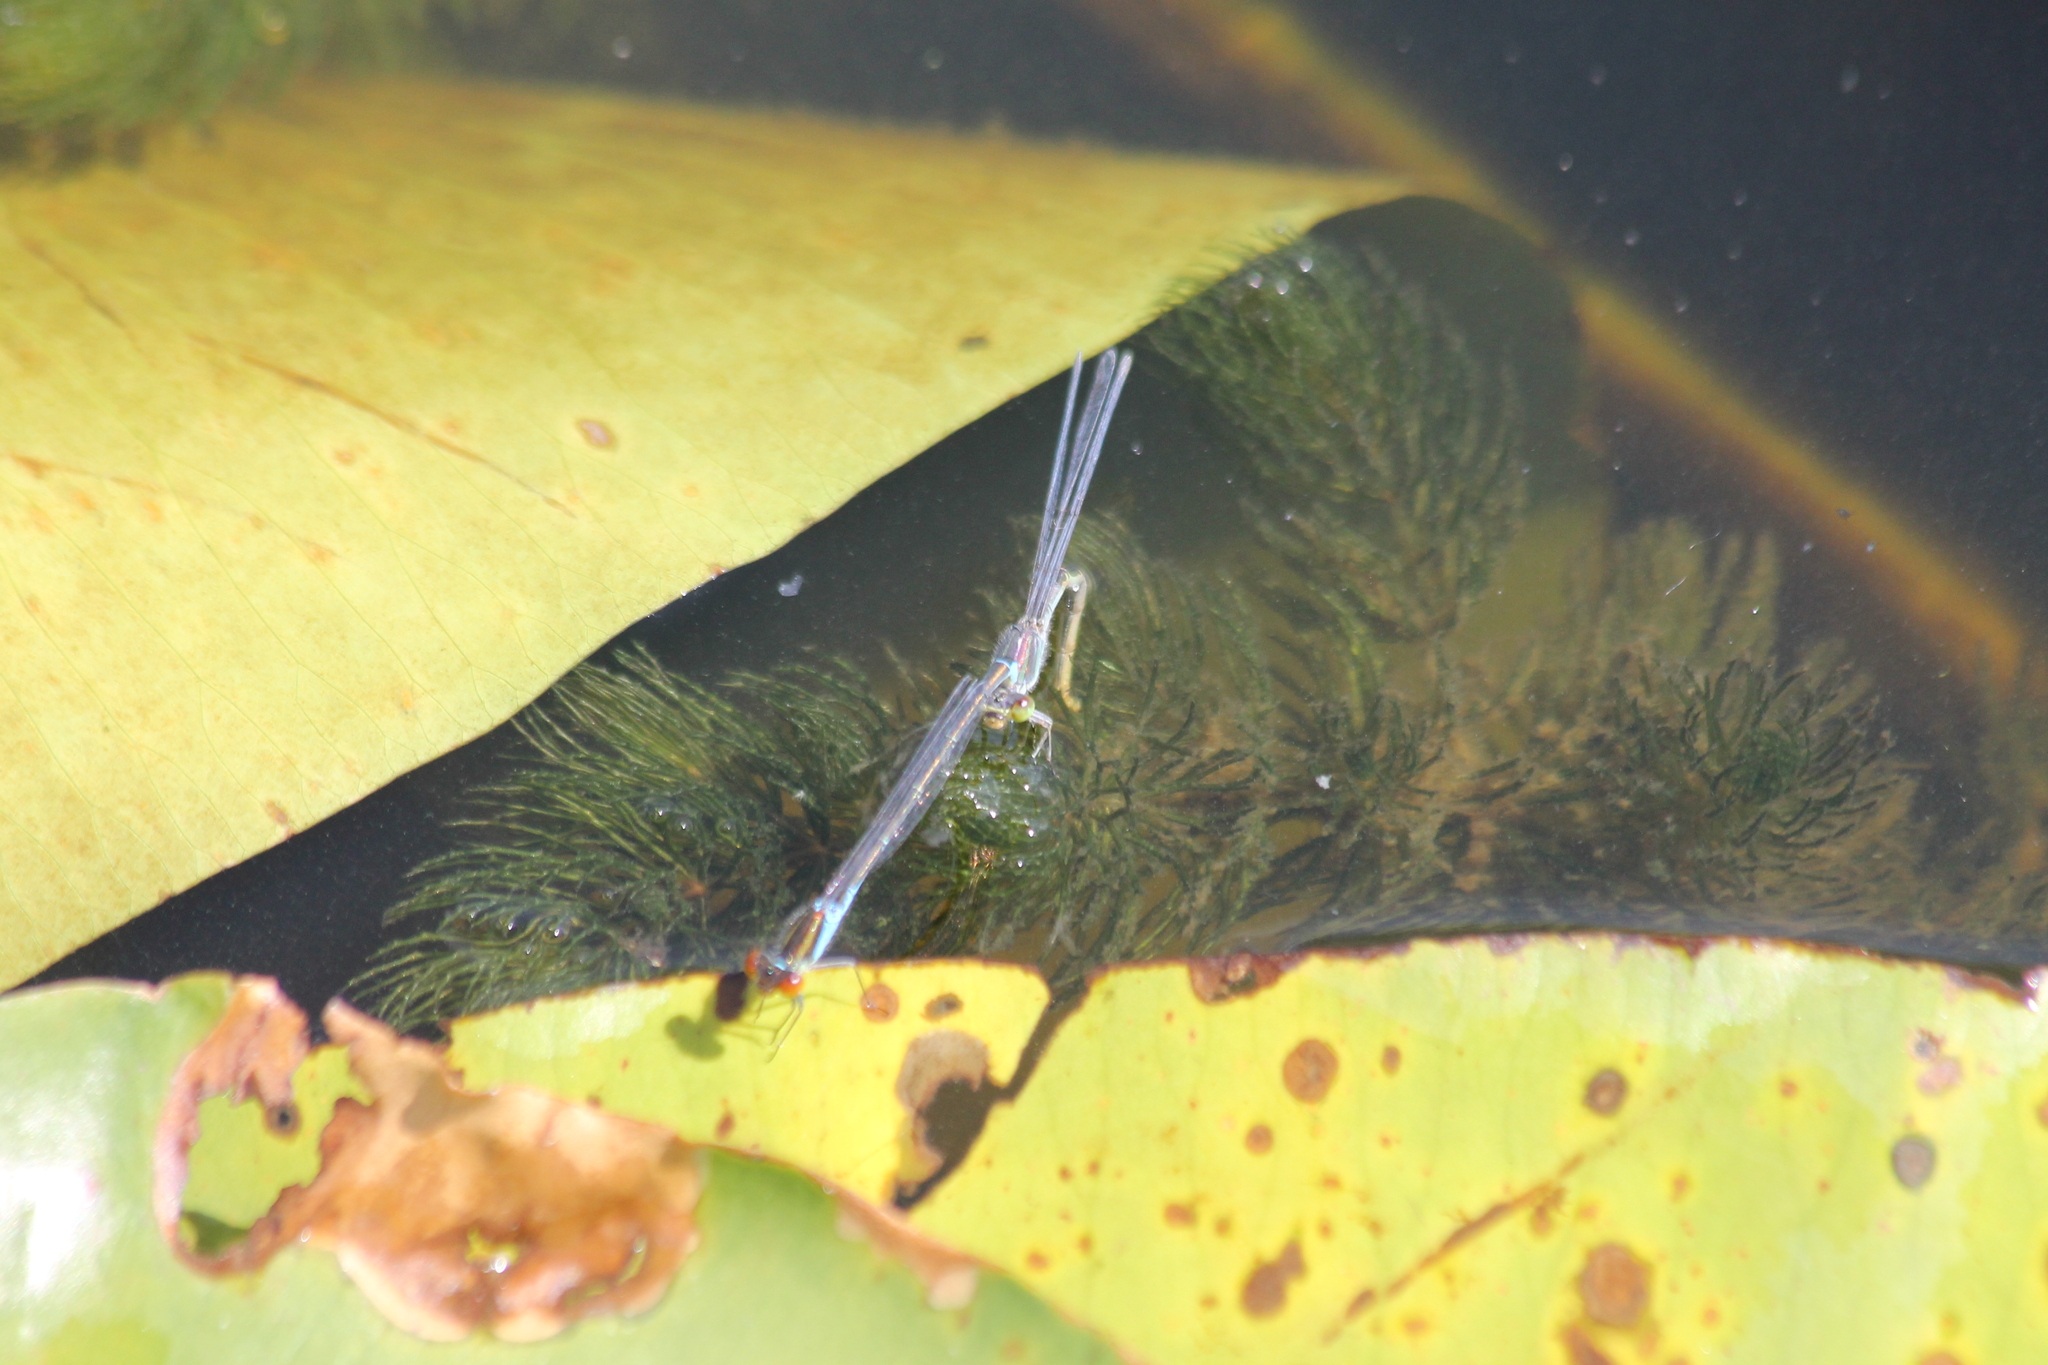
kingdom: Animalia
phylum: Arthropoda
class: Insecta
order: Odonata
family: Coenagrionidae
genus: Erythromma
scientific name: Erythromma viridulum
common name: Small red-eyed damselfly
